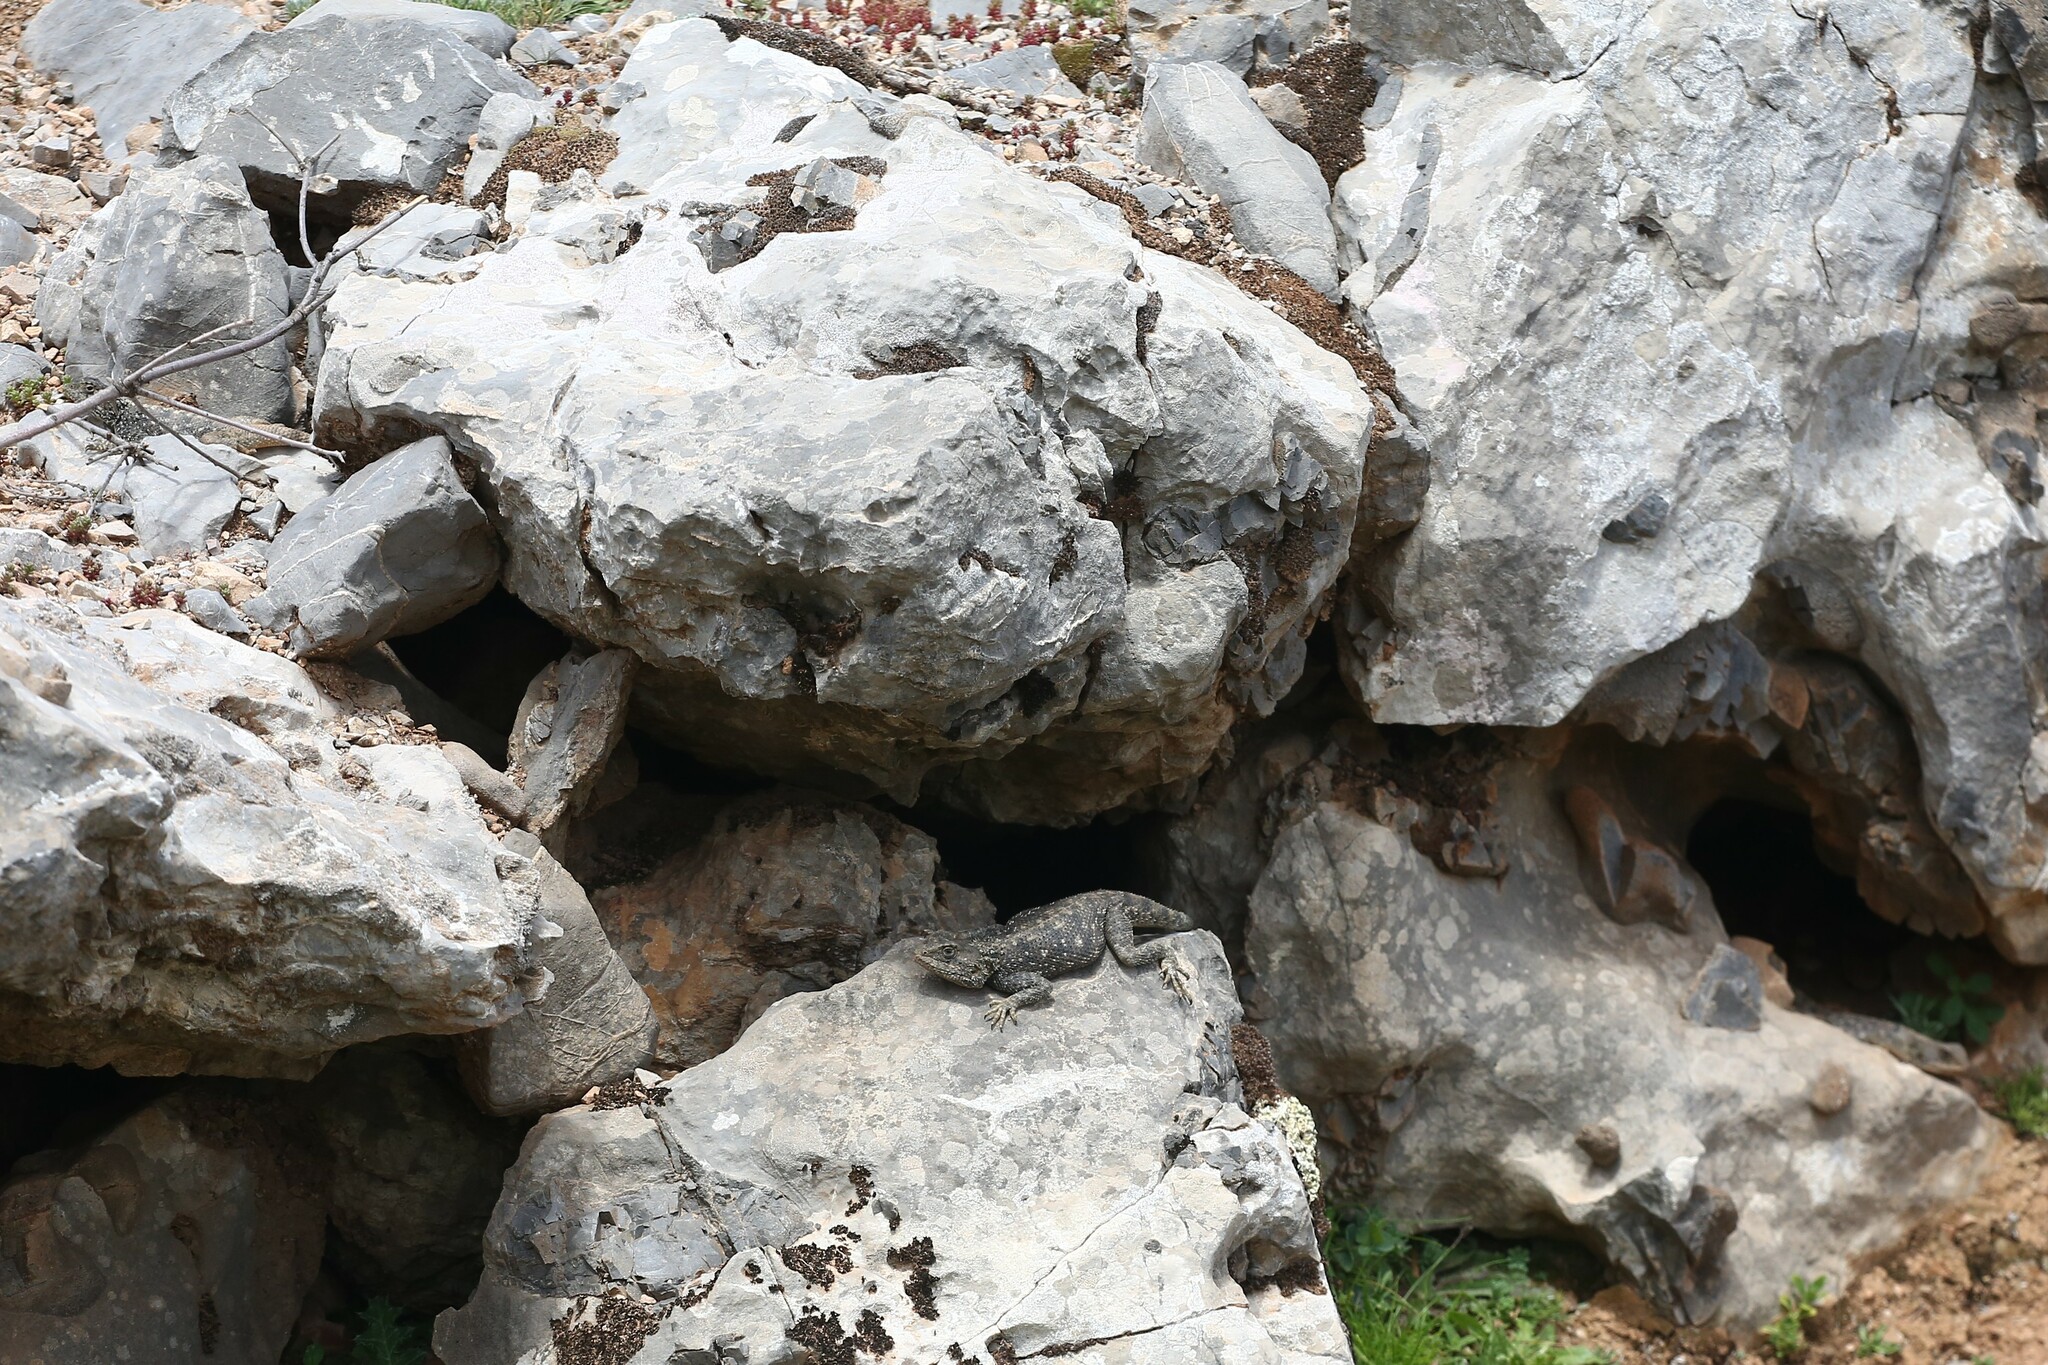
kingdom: Animalia
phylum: Chordata
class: Squamata
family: Agamidae
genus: Agama
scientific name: Agama impalearis
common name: Bibron's agama
